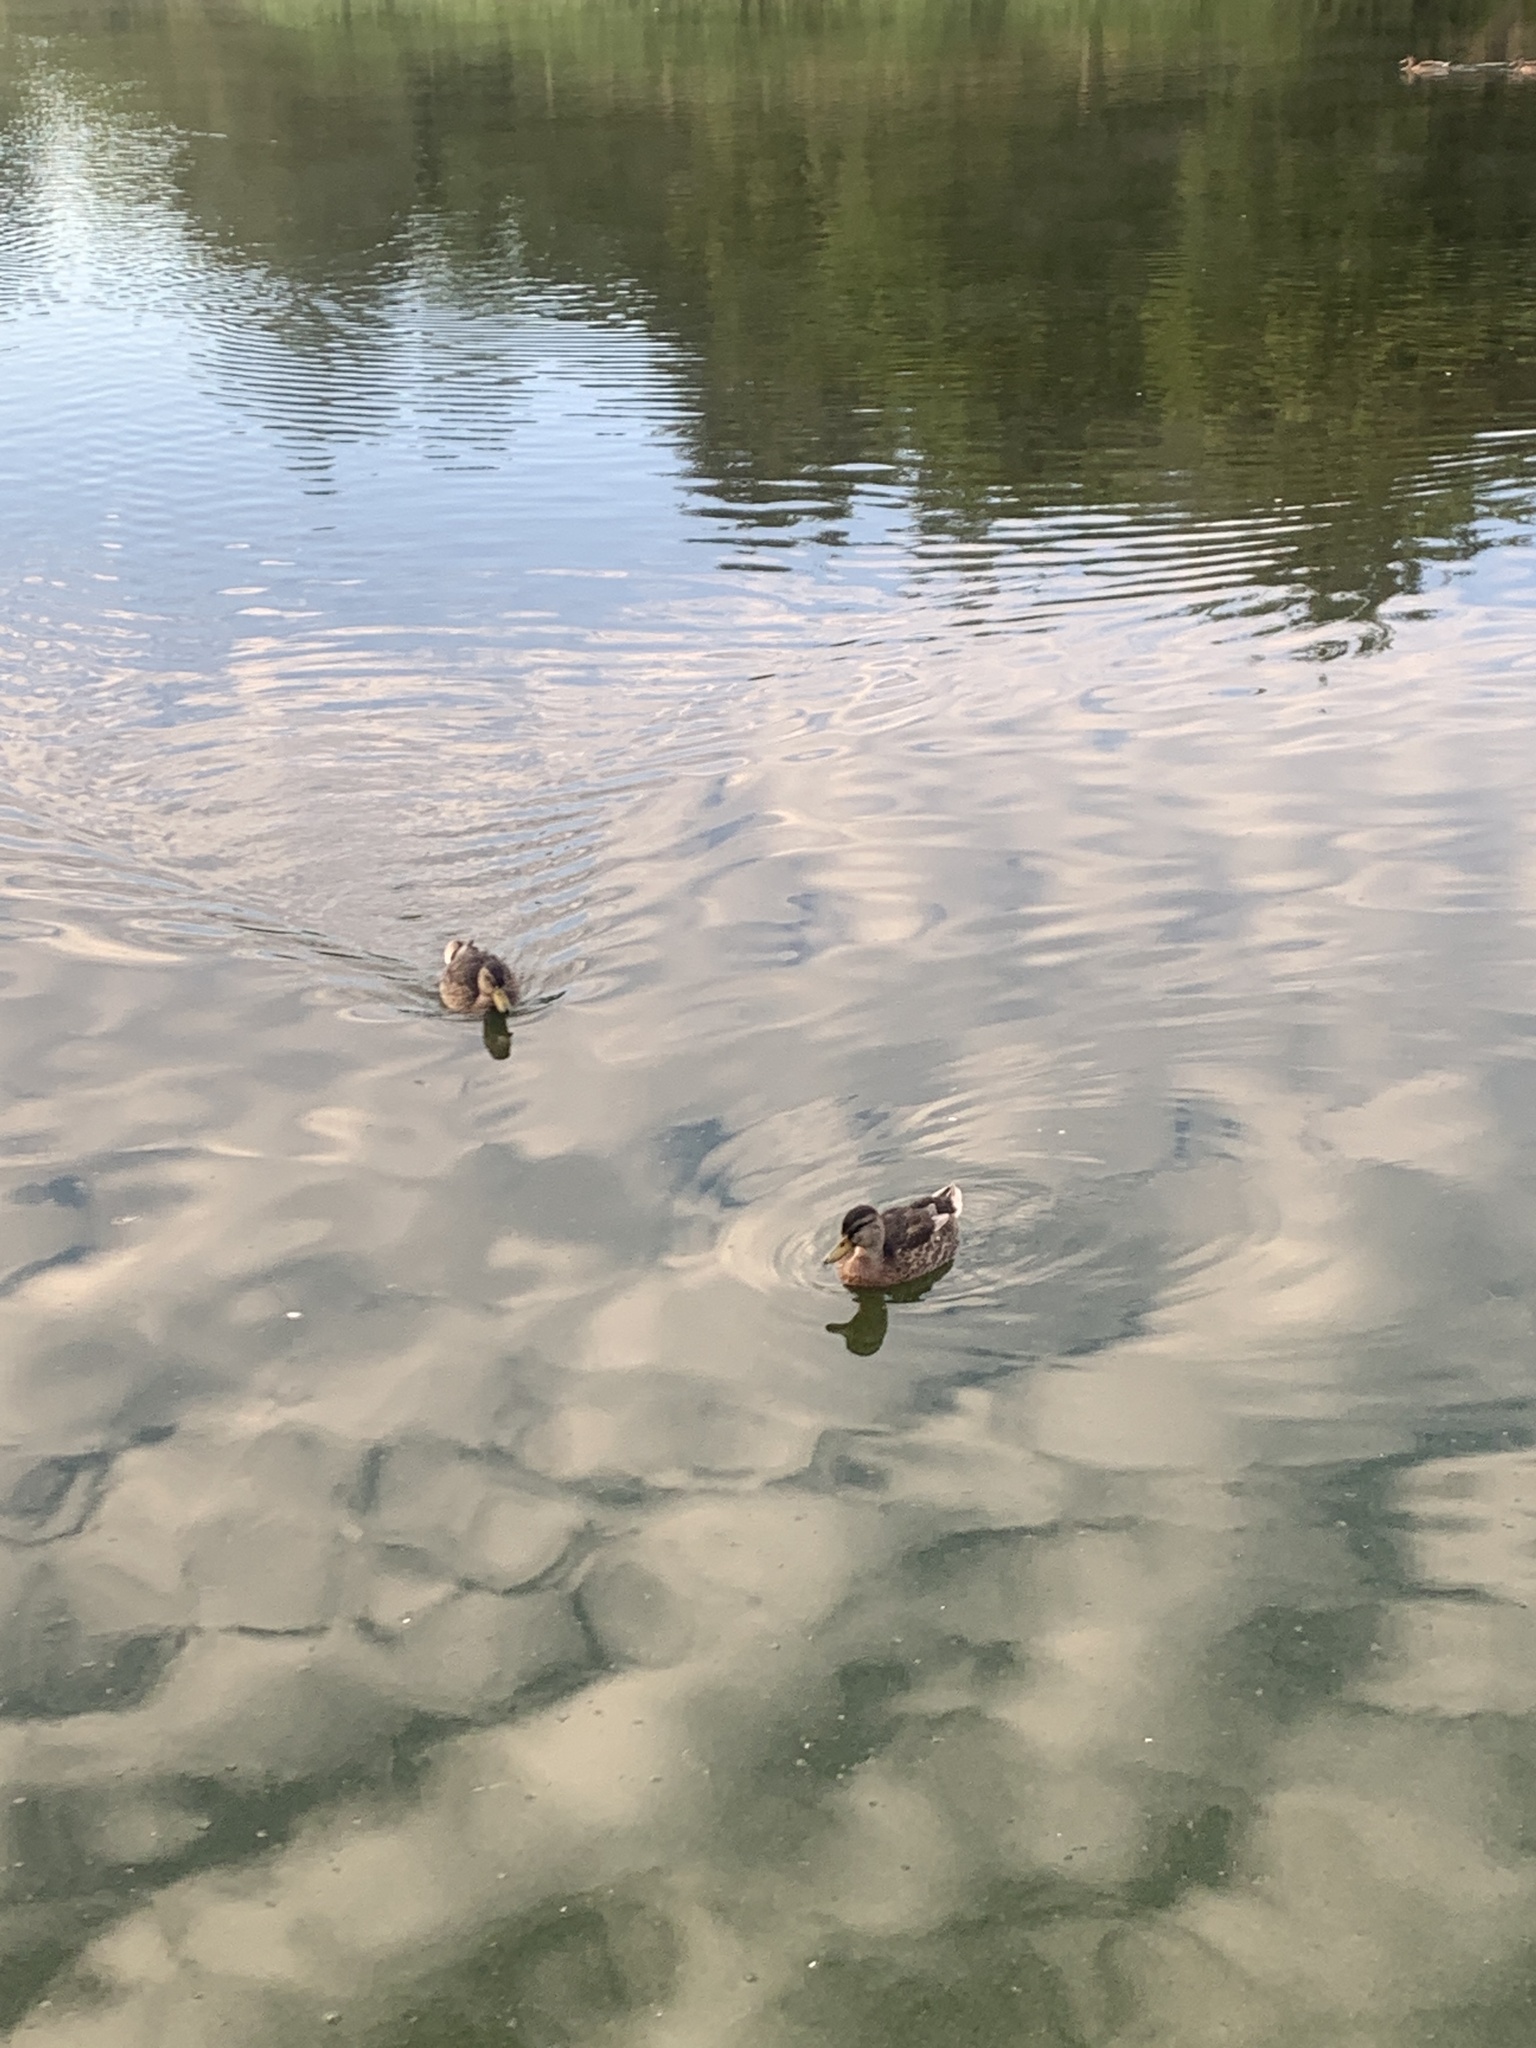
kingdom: Animalia
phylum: Chordata
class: Aves
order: Anseriformes
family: Anatidae
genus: Anas
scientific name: Anas platyrhynchos
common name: Mallard
